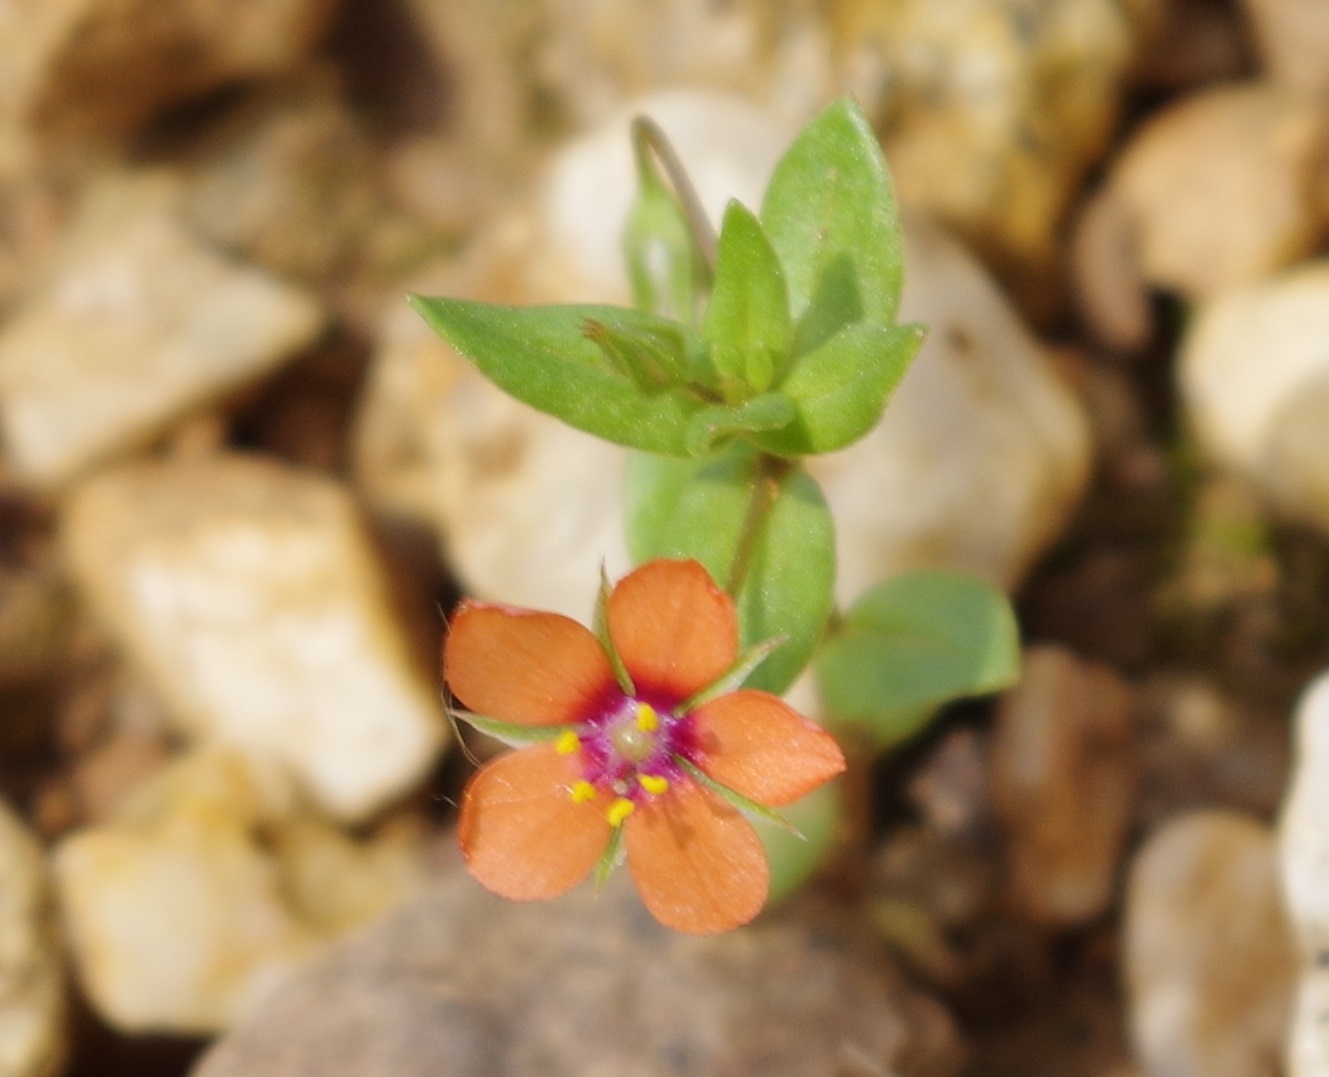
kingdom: Plantae
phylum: Tracheophyta
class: Magnoliopsida
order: Ericales
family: Primulaceae
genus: Lysimachia
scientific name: Lysimachia arvensis
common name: Scarlet pimpernel
